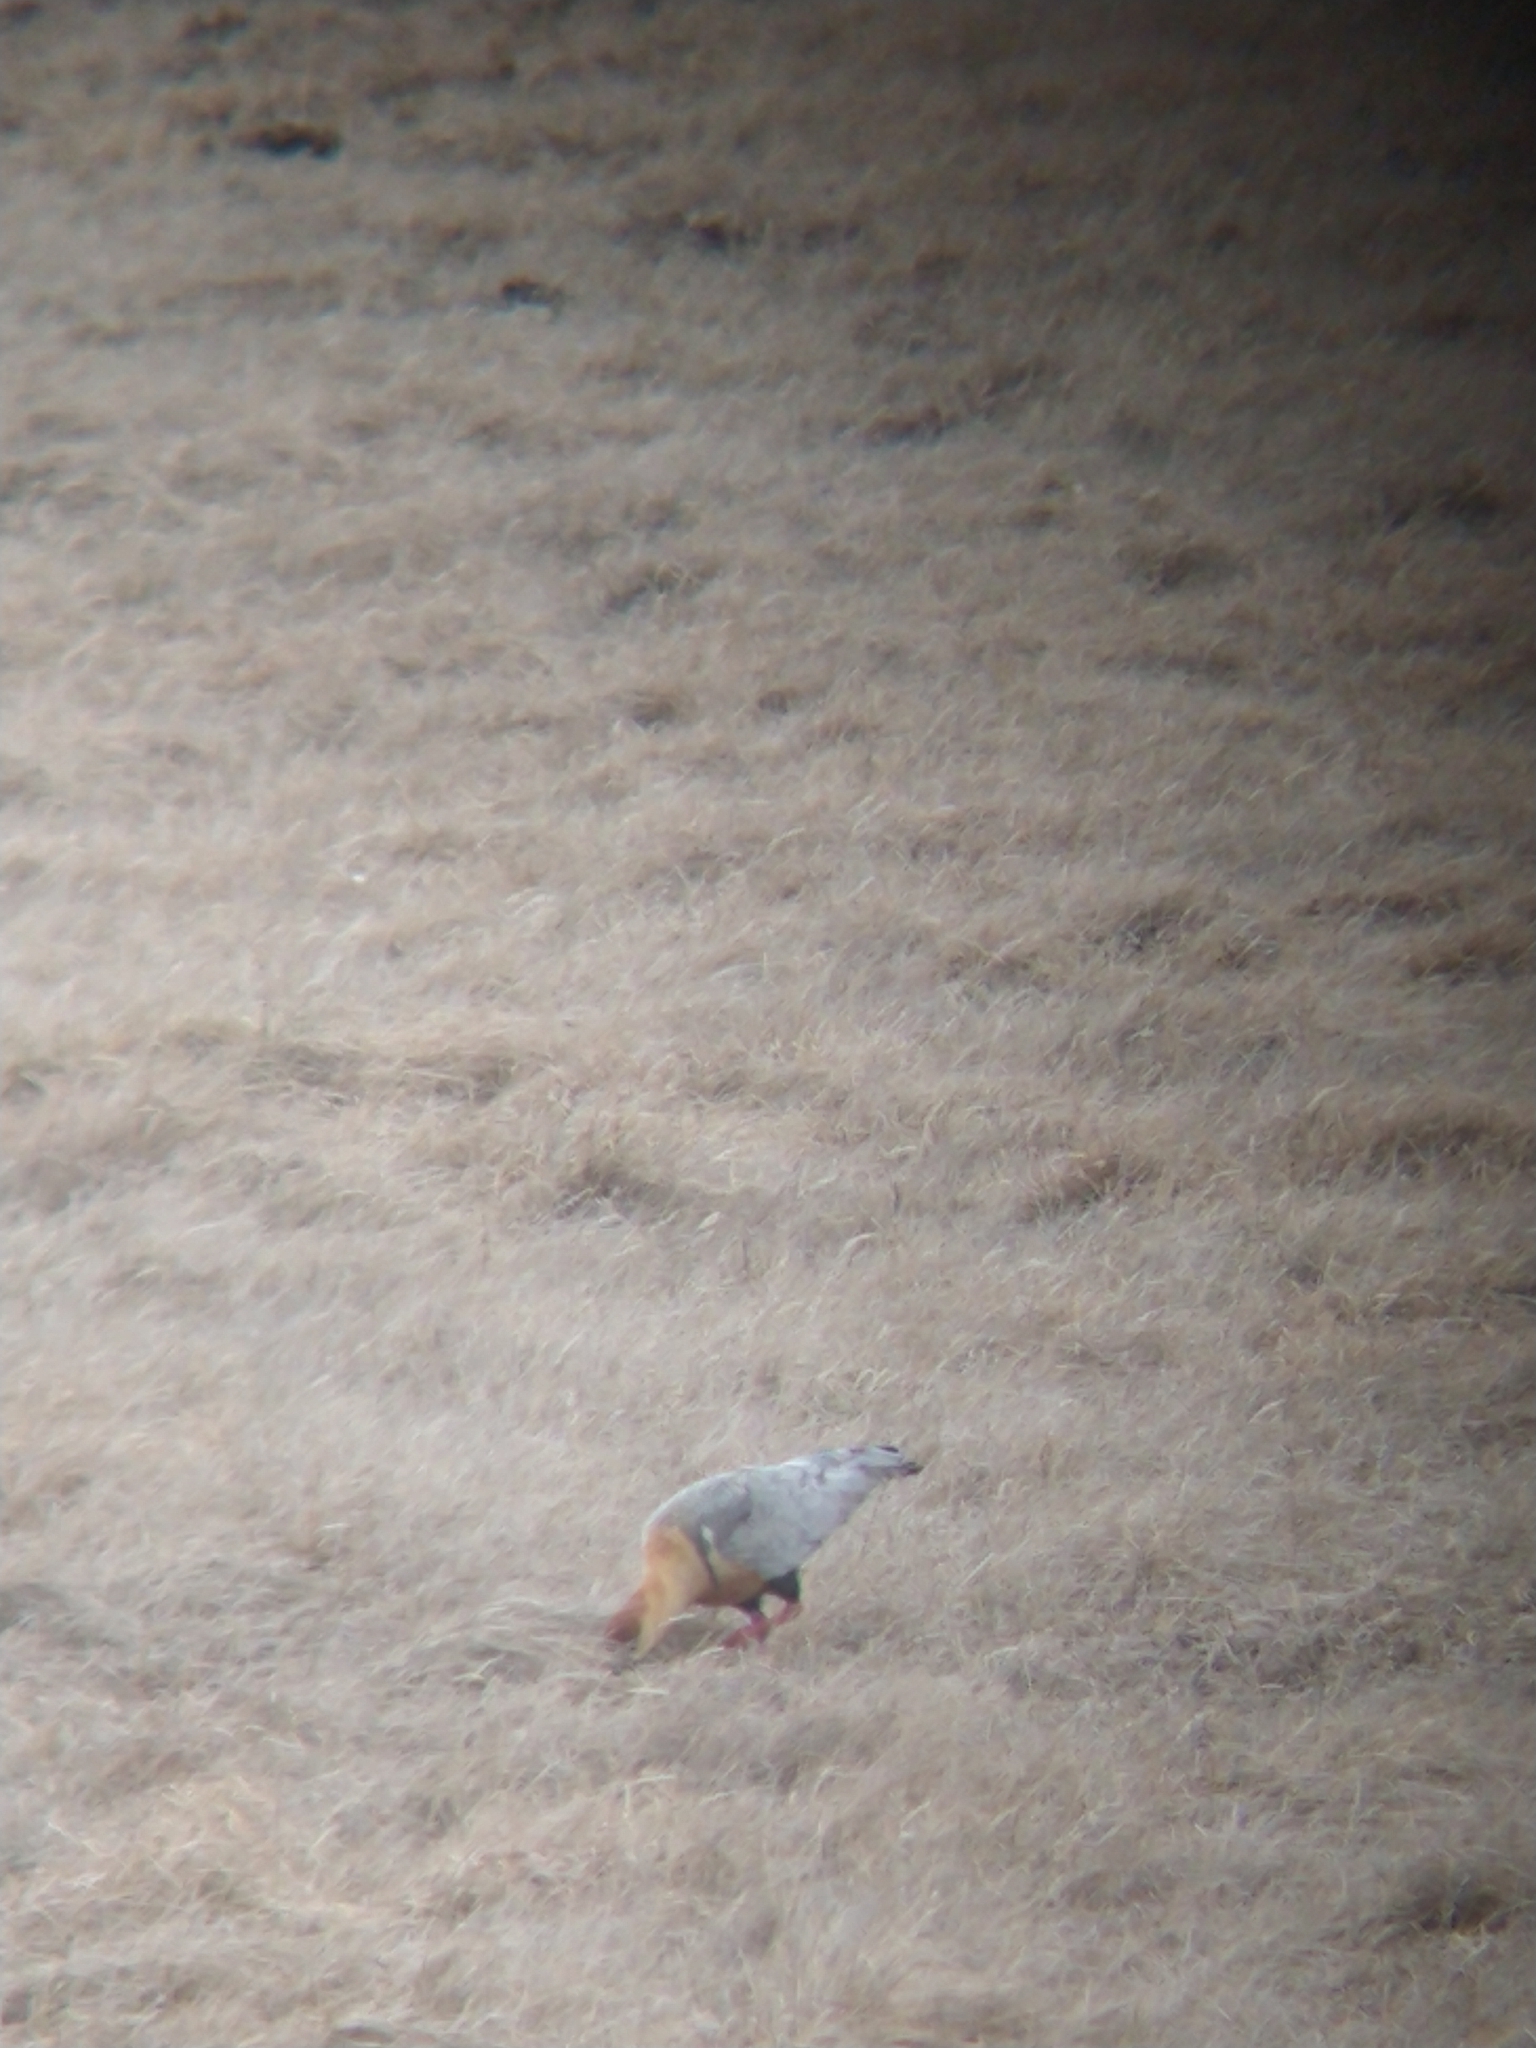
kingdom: Animalia
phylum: Chordata
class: Aves
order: Pelecaniformes
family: Threskiornithidae
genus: Theristicus
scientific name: Theristicus melanopis
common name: Black-faced ibis
